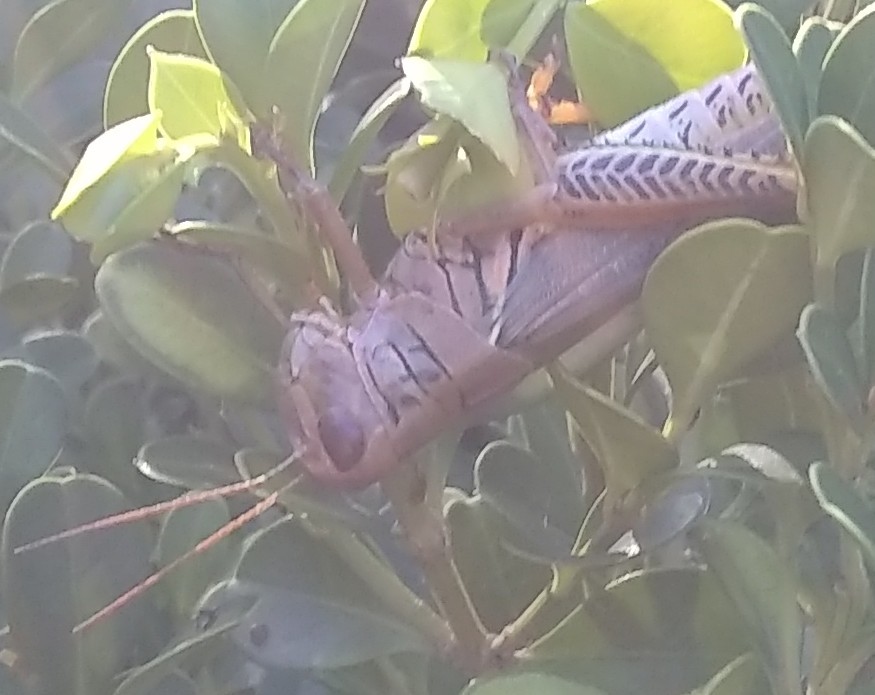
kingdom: Animalia
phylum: Arthropoda
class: Insecta
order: Orthoptera
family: Acrididae
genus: Melanoplus
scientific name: Melanoplus differentialis
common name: Differential grasshopper
